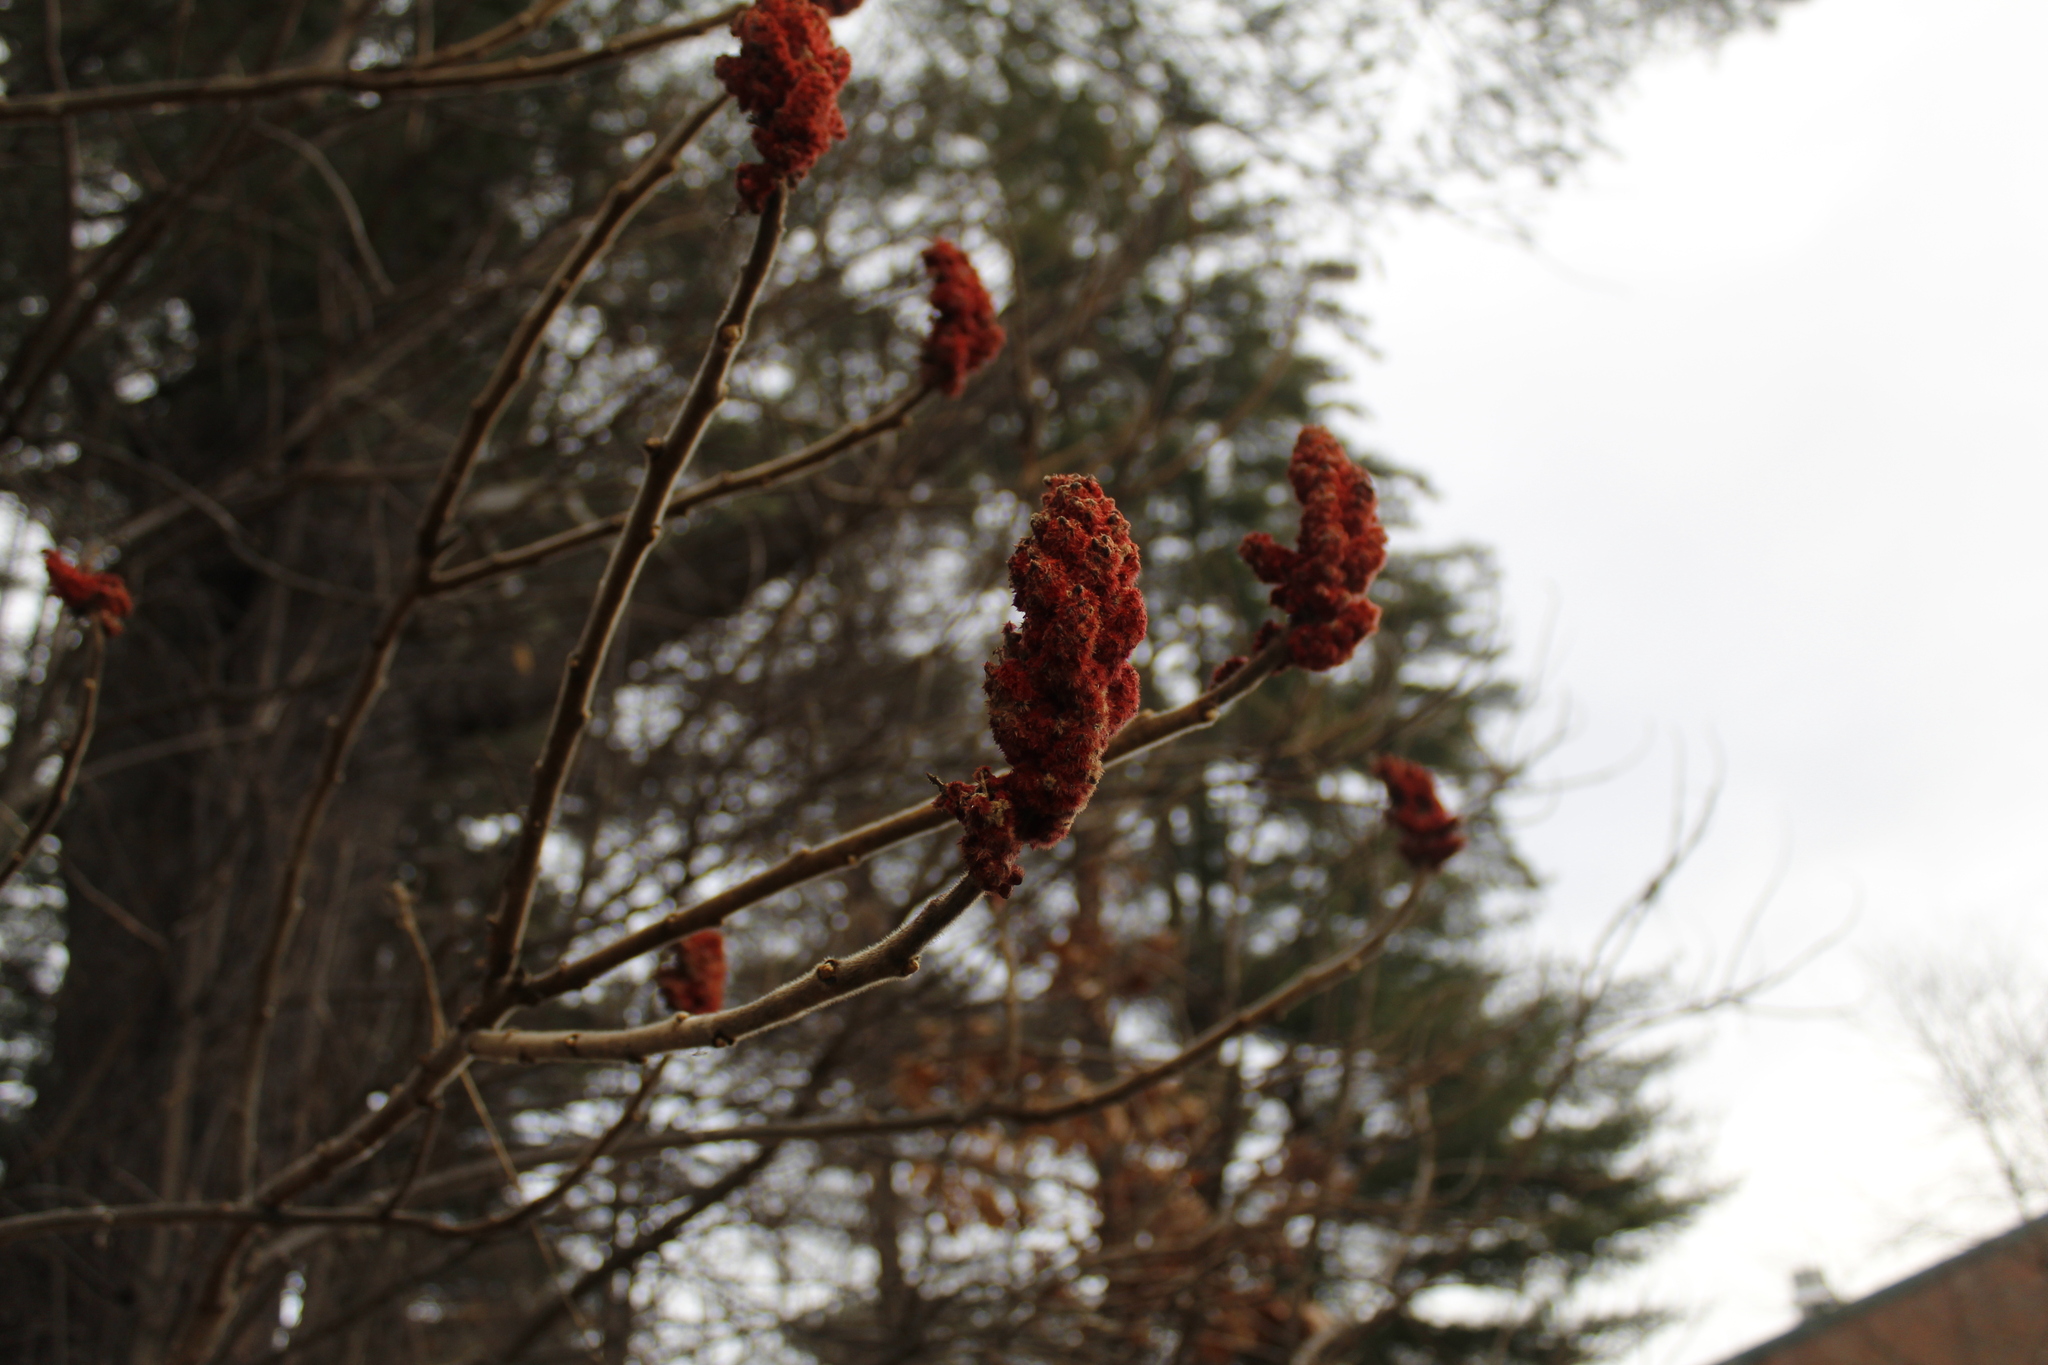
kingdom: Plantae
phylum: Tracheophyta
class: Magnoliopsida
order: Sapindales
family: Anacardiaceae
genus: Rhus
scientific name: Rhus typhina
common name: Staghorn sumac
